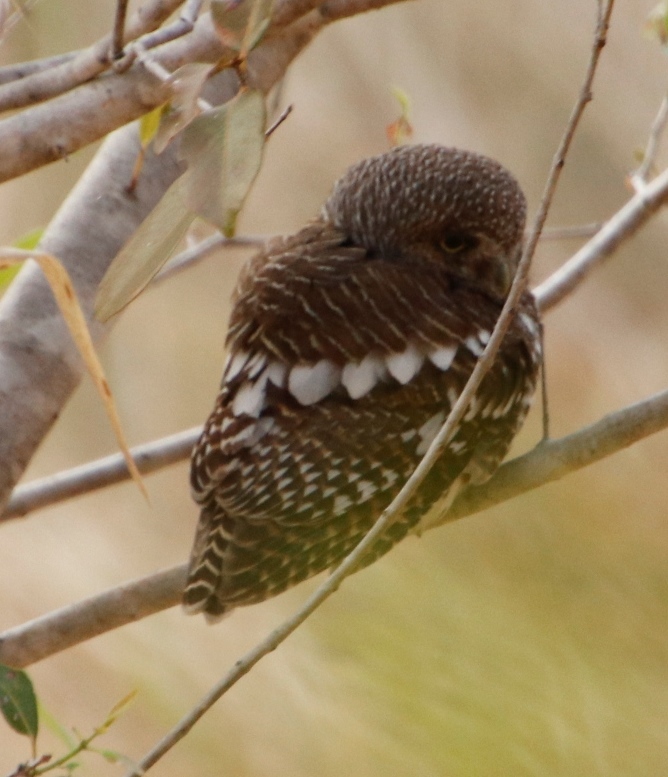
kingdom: Animalia
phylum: Chordata
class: Aves
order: Strigiformes
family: Strigidae
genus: Glaucidium
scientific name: Glaucidium capense
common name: African barred owlet
